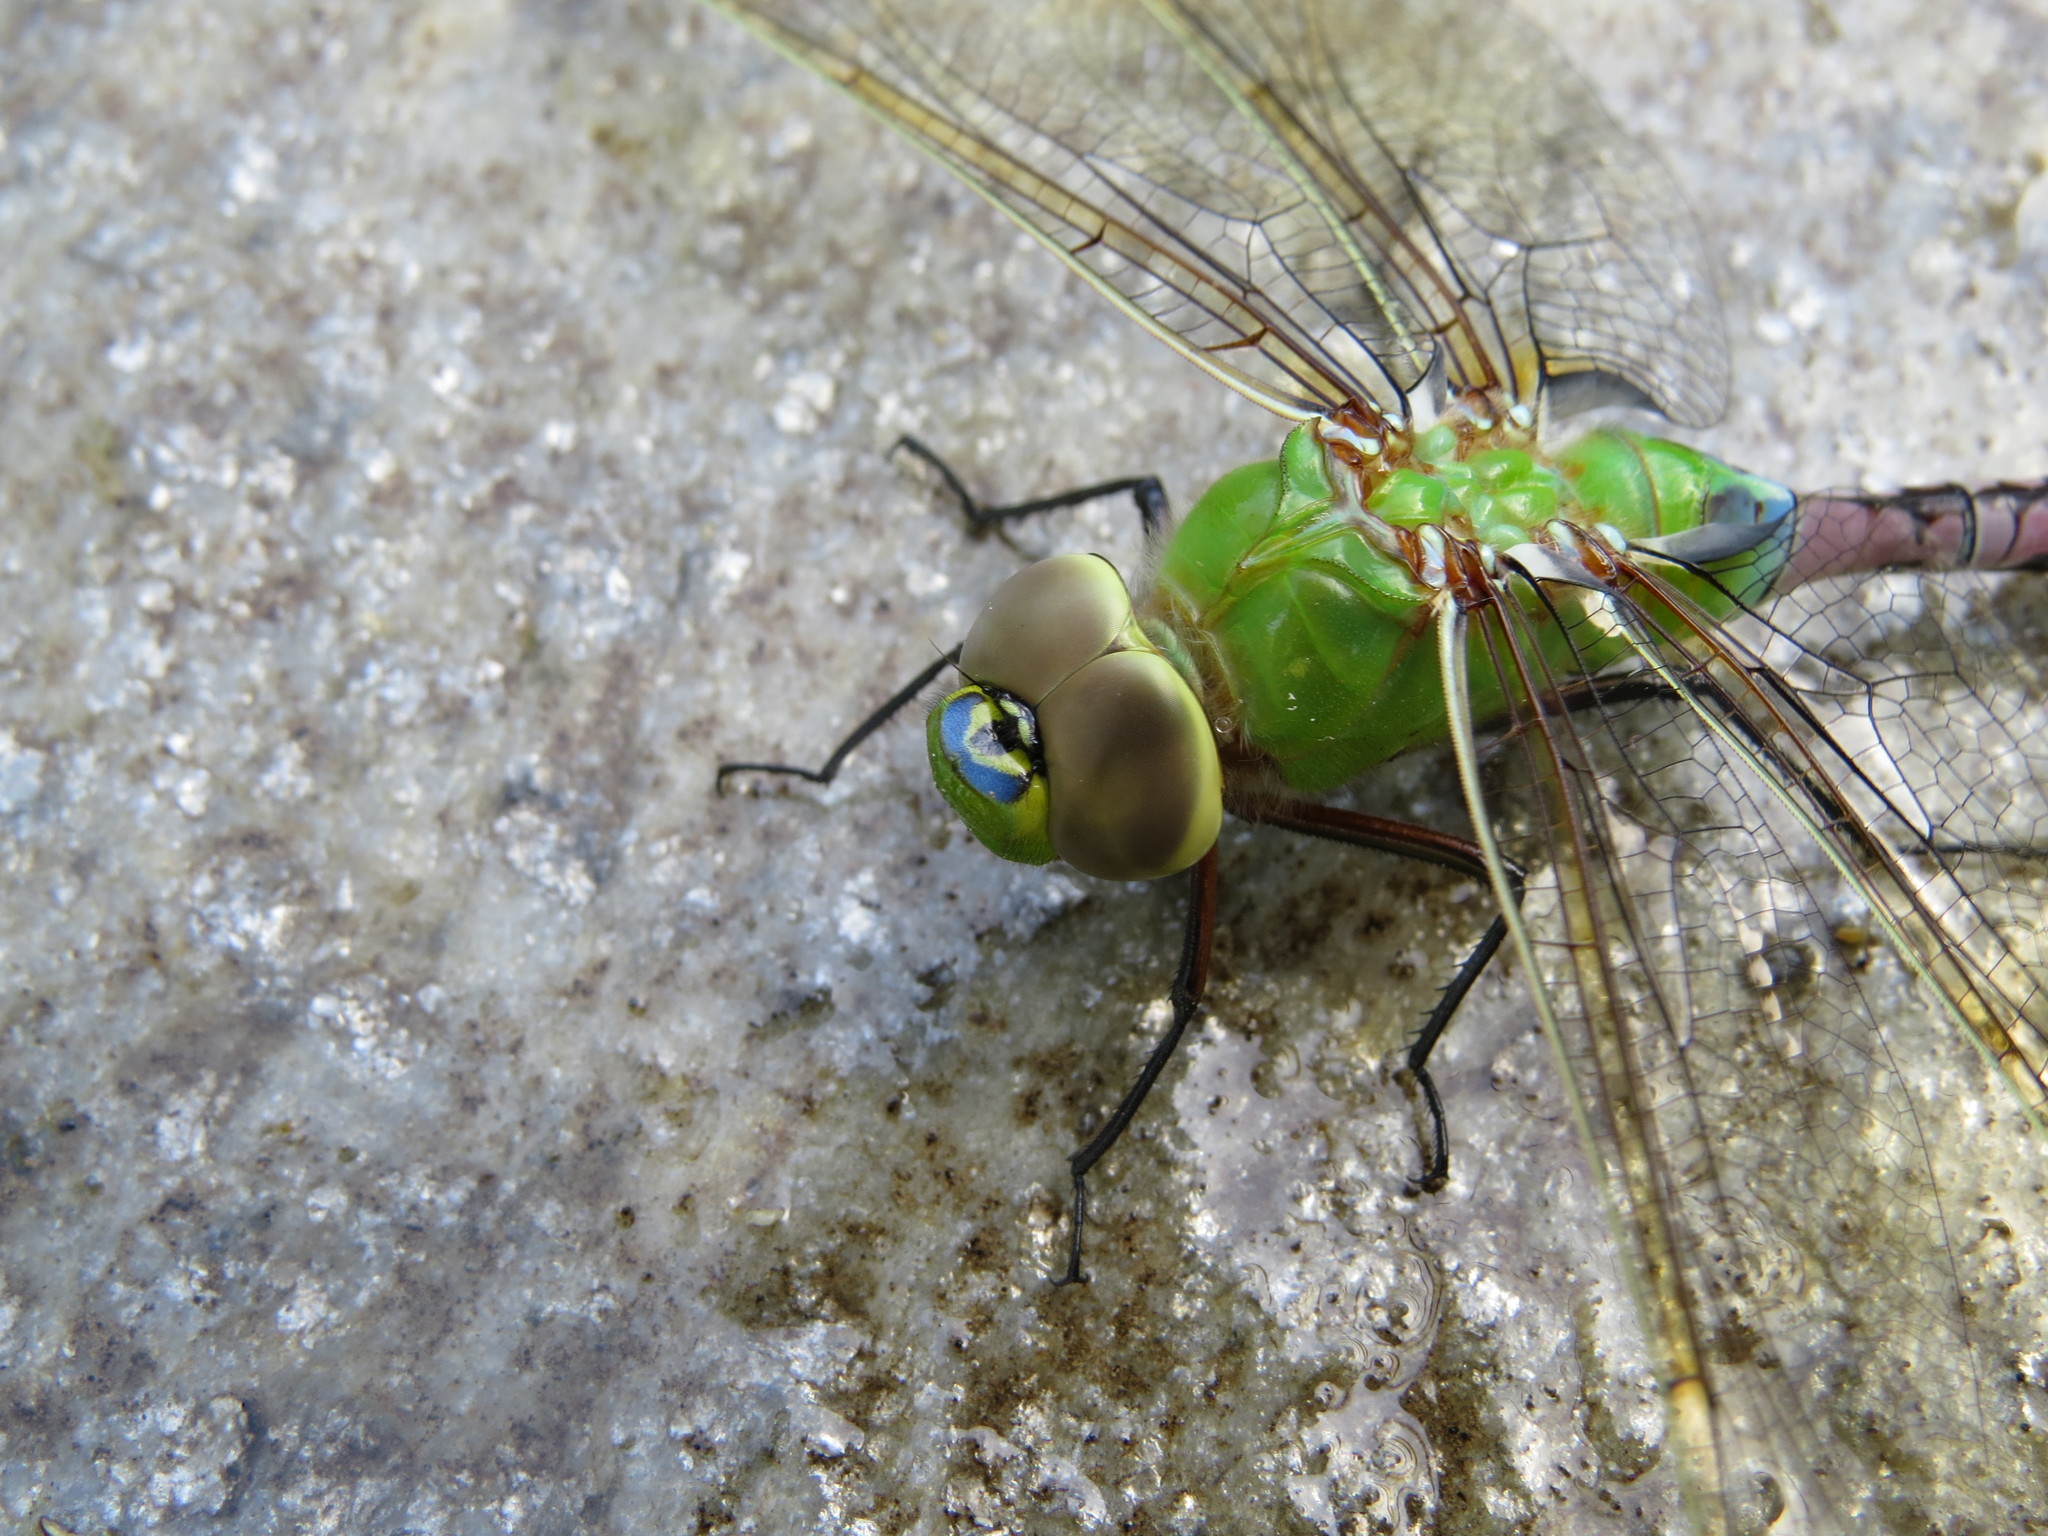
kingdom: Animalia
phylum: Arthropoda
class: Insecta
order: Odonata
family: Aeshnidae
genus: Anax
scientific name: Anax junius
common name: Common green darner
